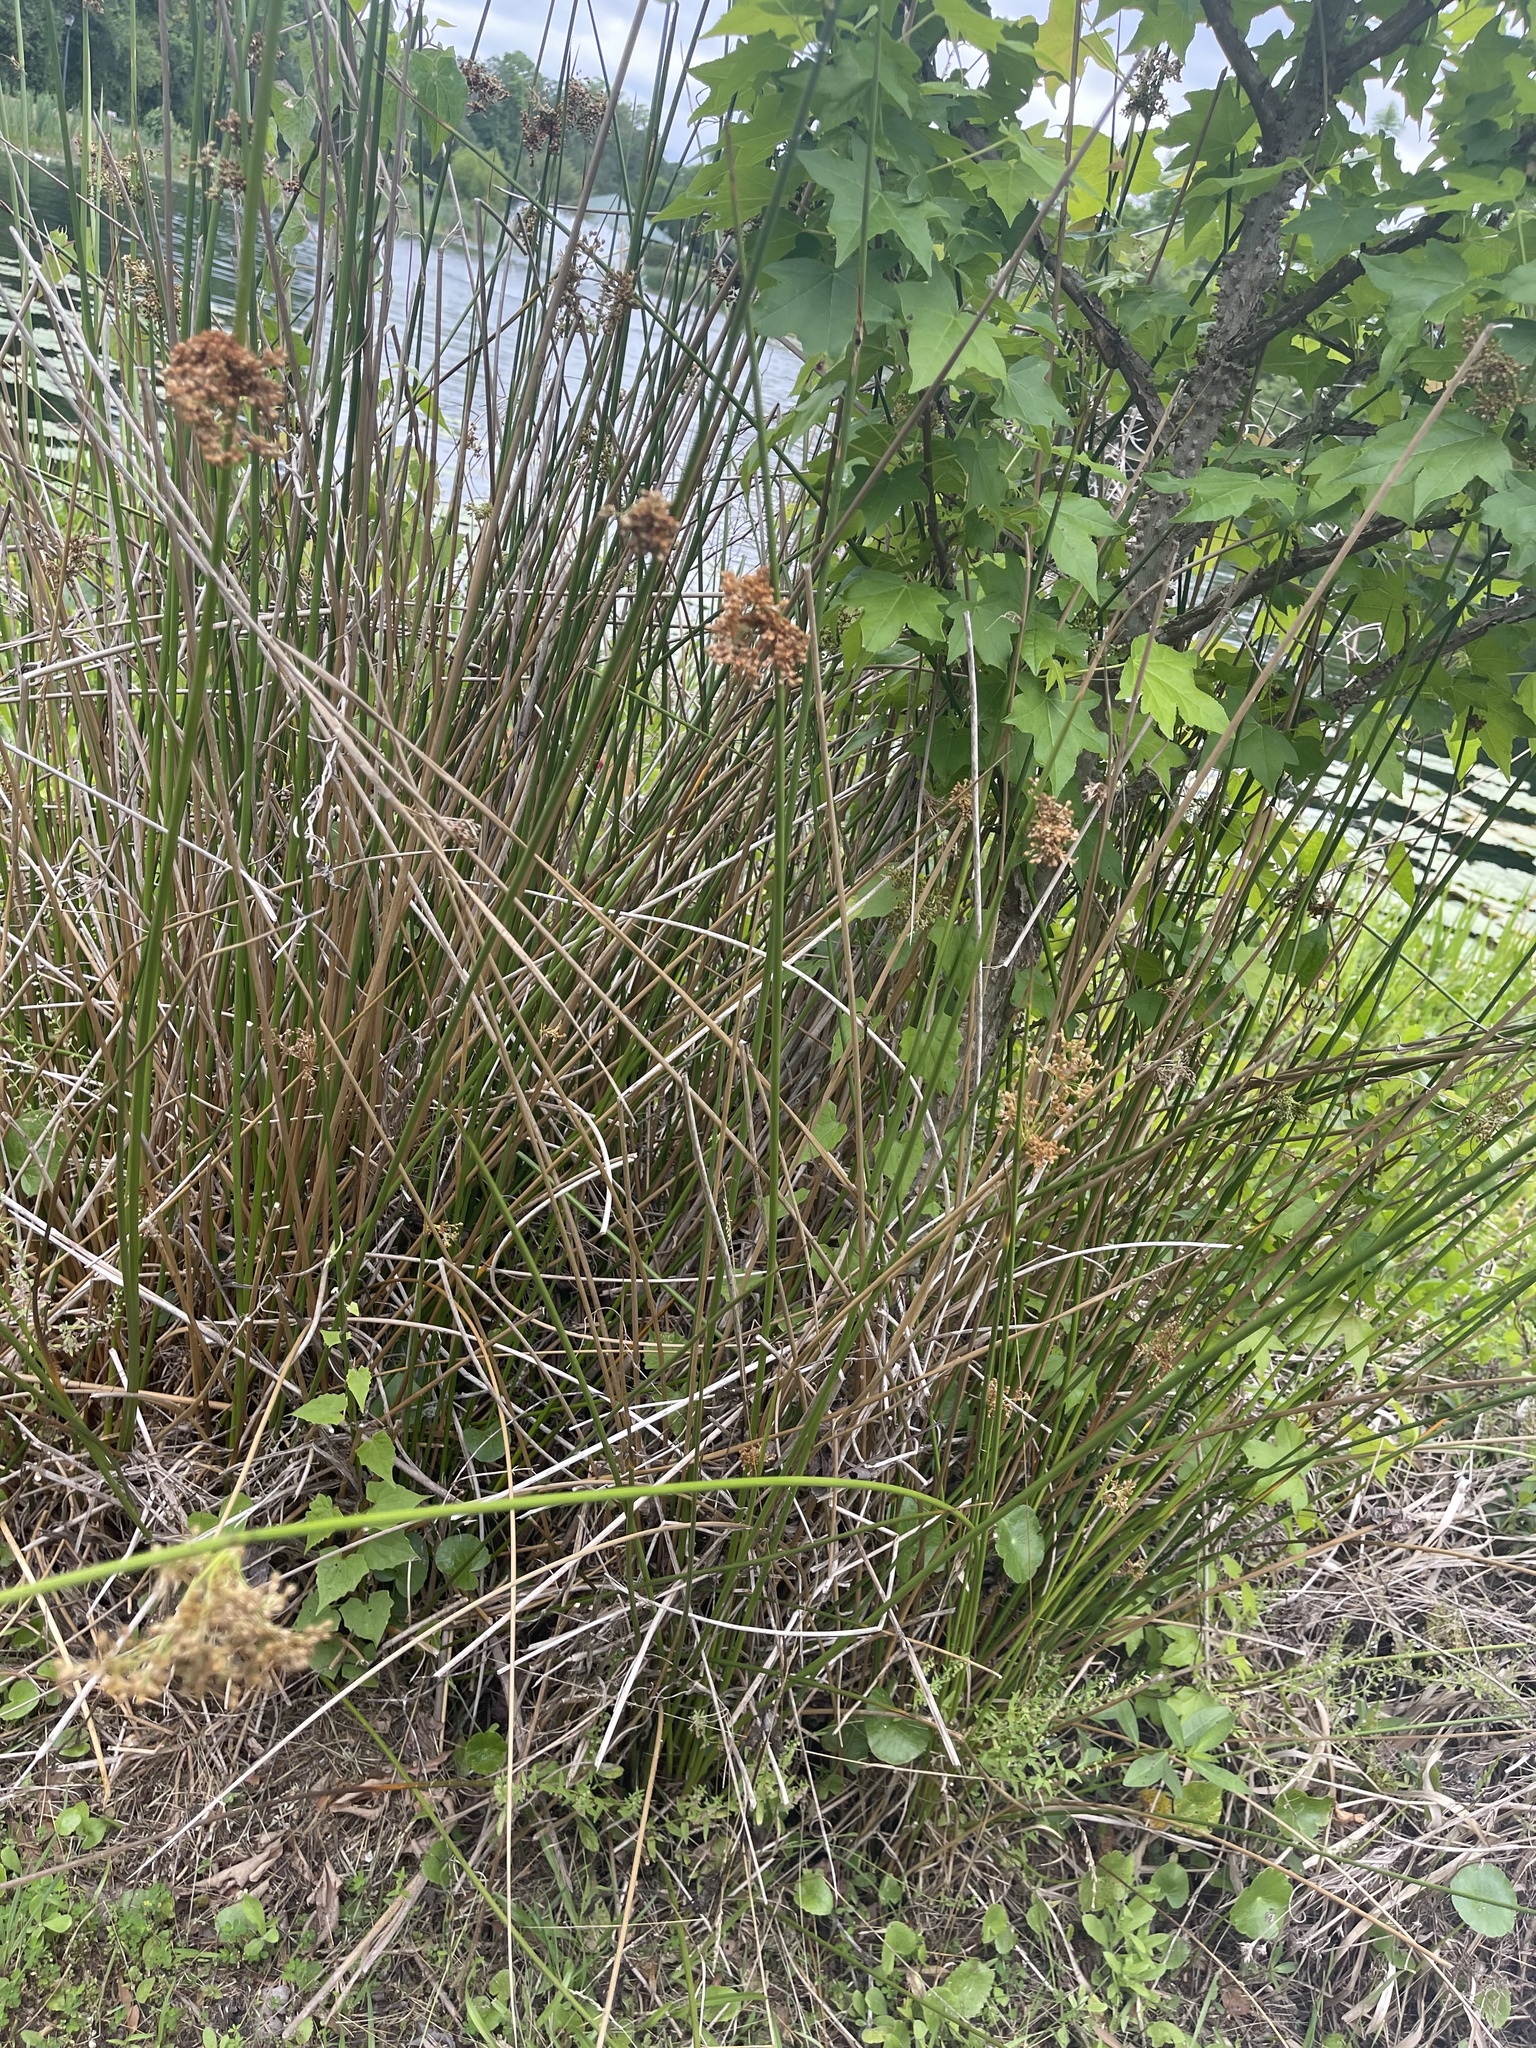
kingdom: Plantae
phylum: Tracheophyta
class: Liliopsida
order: Poales
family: Juncaceae
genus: Juncus
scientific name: Juncus effusus
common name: Soft rush
